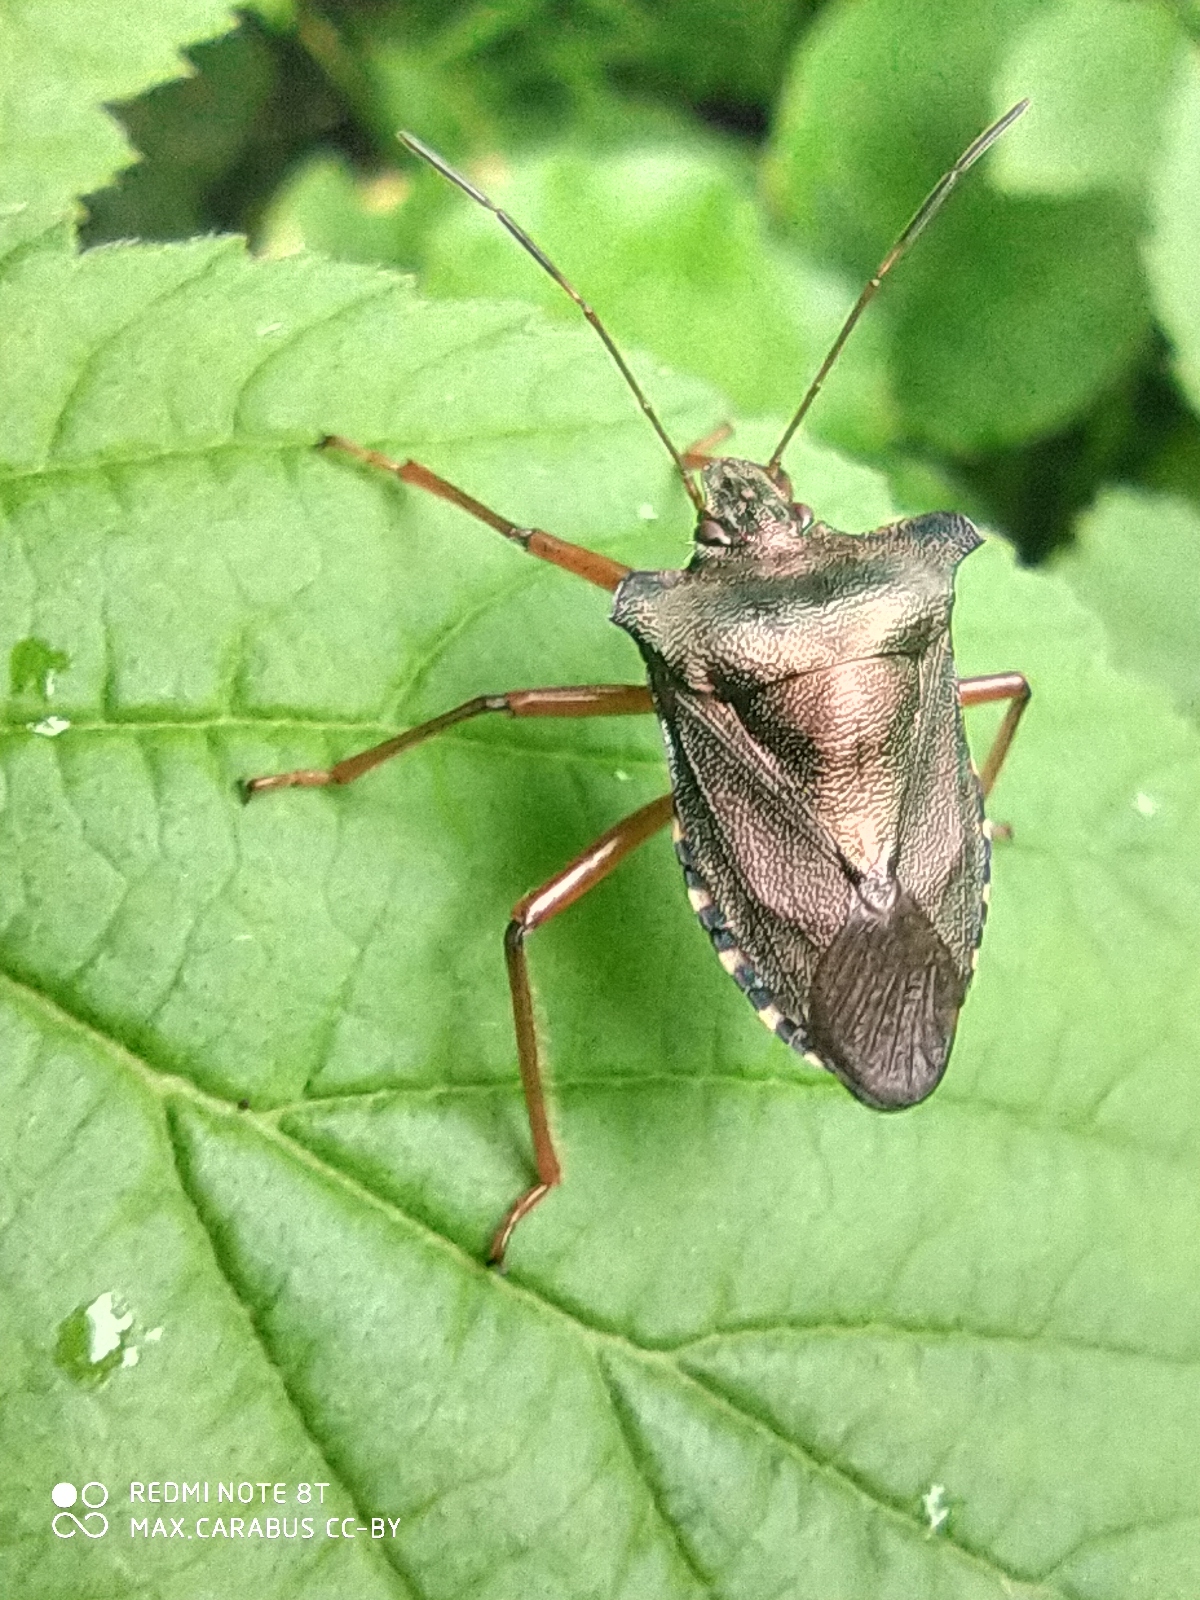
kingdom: Animalia
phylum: Arthropoda
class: Insecta
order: Hemiptera
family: Pentatomidae
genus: Pentatoma
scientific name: Pentatoma rufipes
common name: Forest bug
